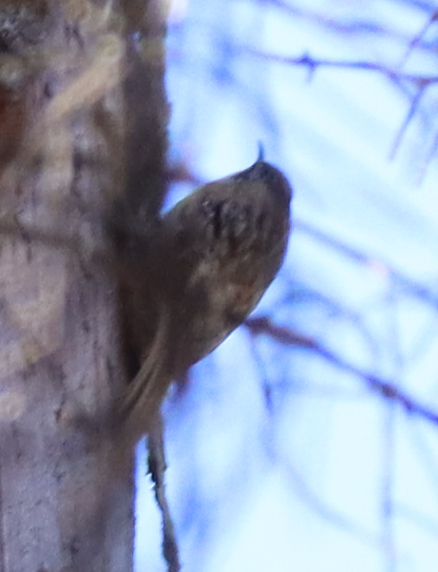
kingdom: Animalia
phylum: Chordata
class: Aves
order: Passeriformes
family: Certhiidae
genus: Certhia
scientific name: Certhia americana
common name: Brown creeper
